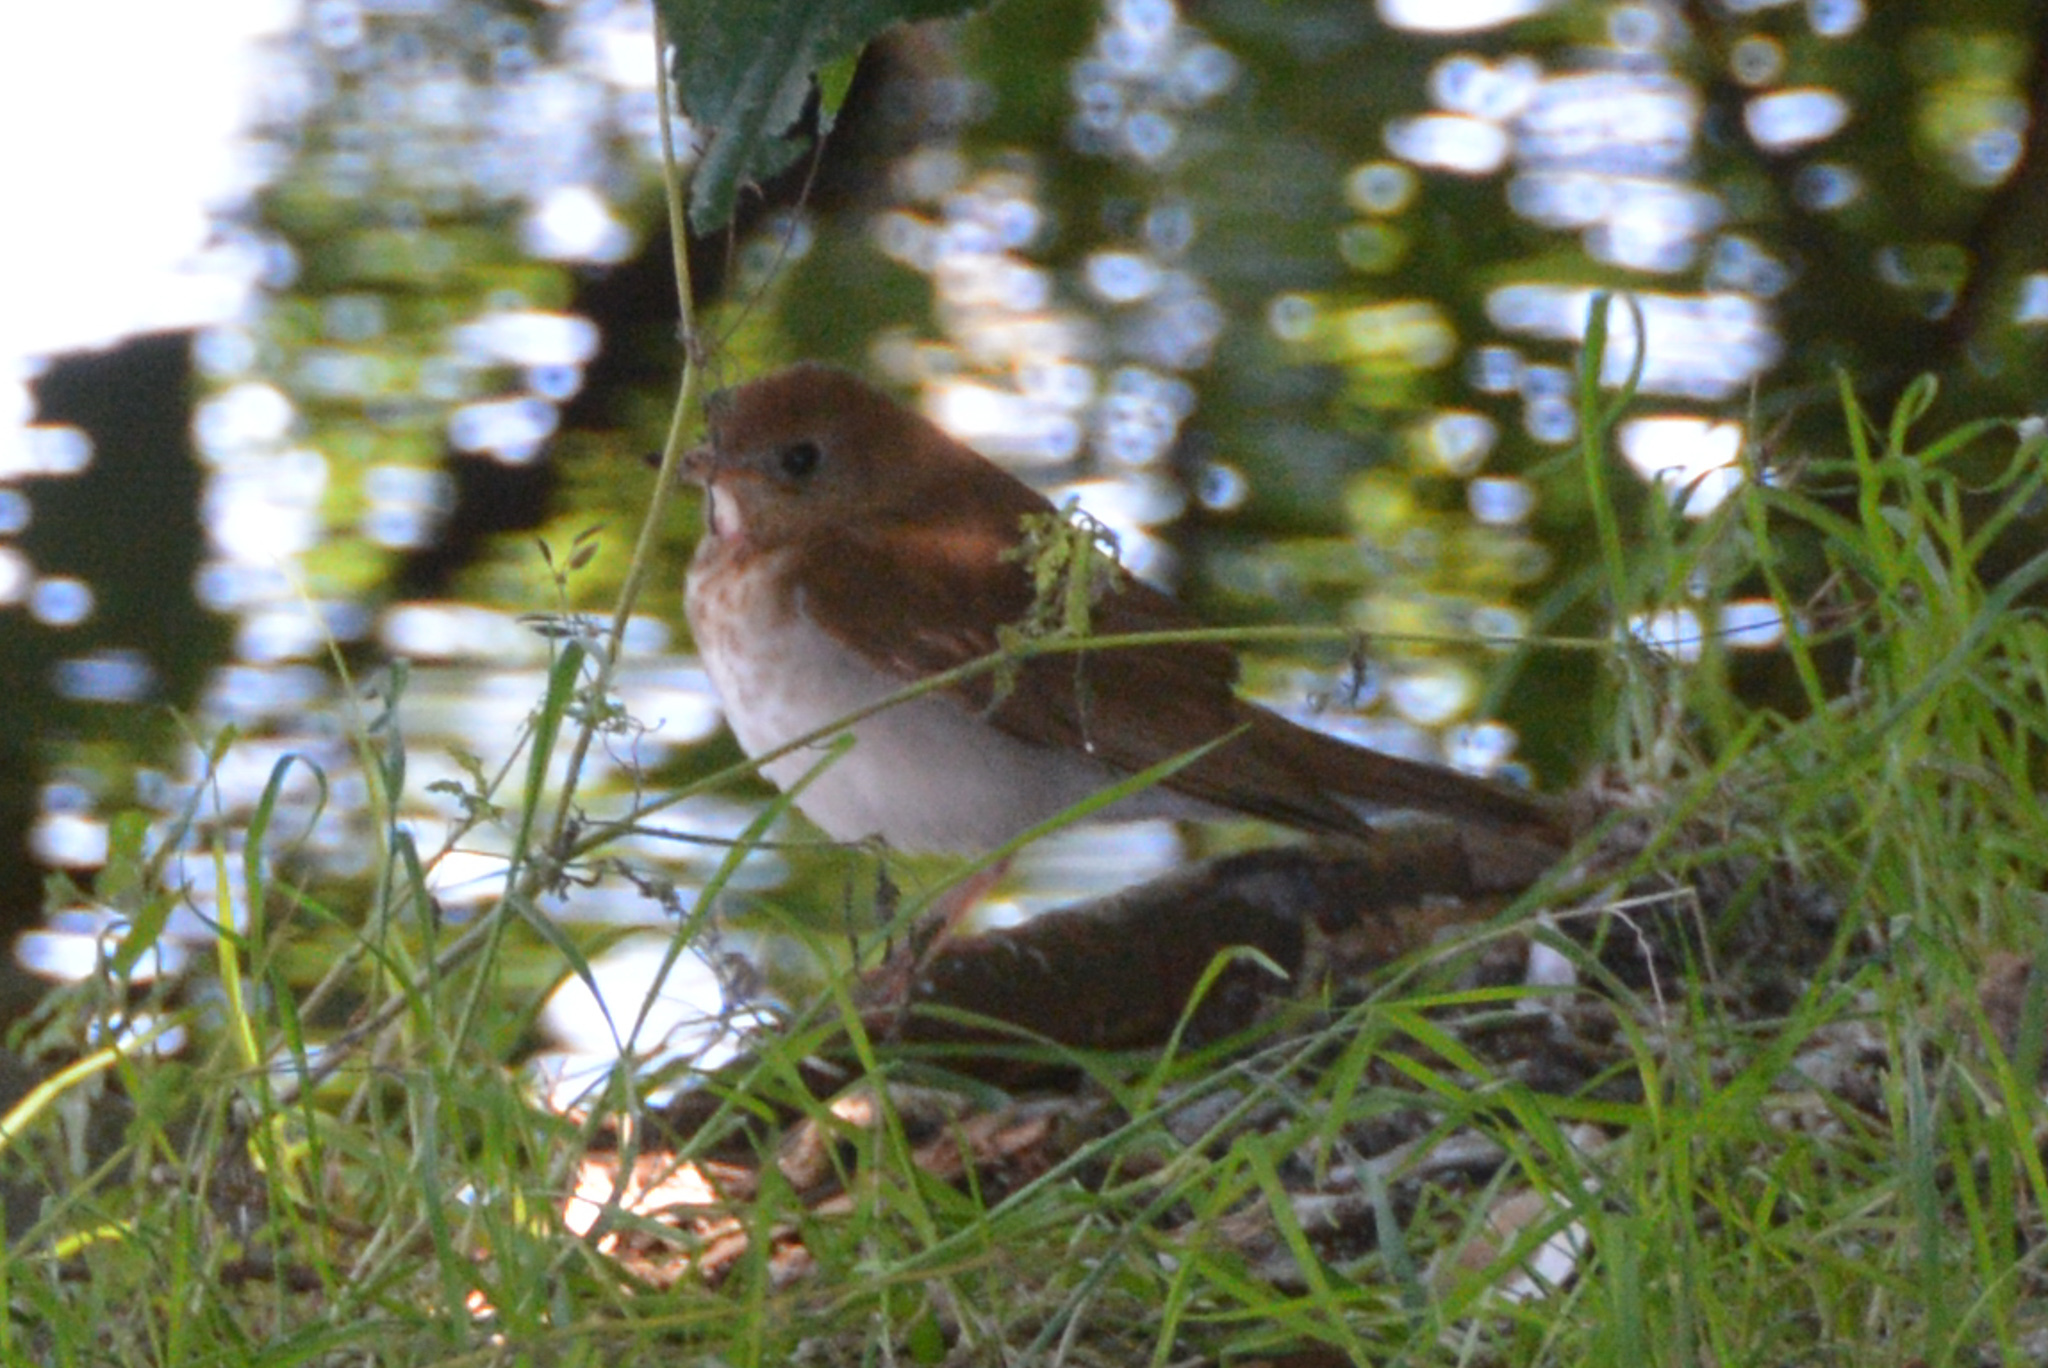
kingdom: Animalia
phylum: Chordata
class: Aves
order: Passeriformes
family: Turdidae
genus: Catharus
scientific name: Catharus fuscescens
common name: Veery
